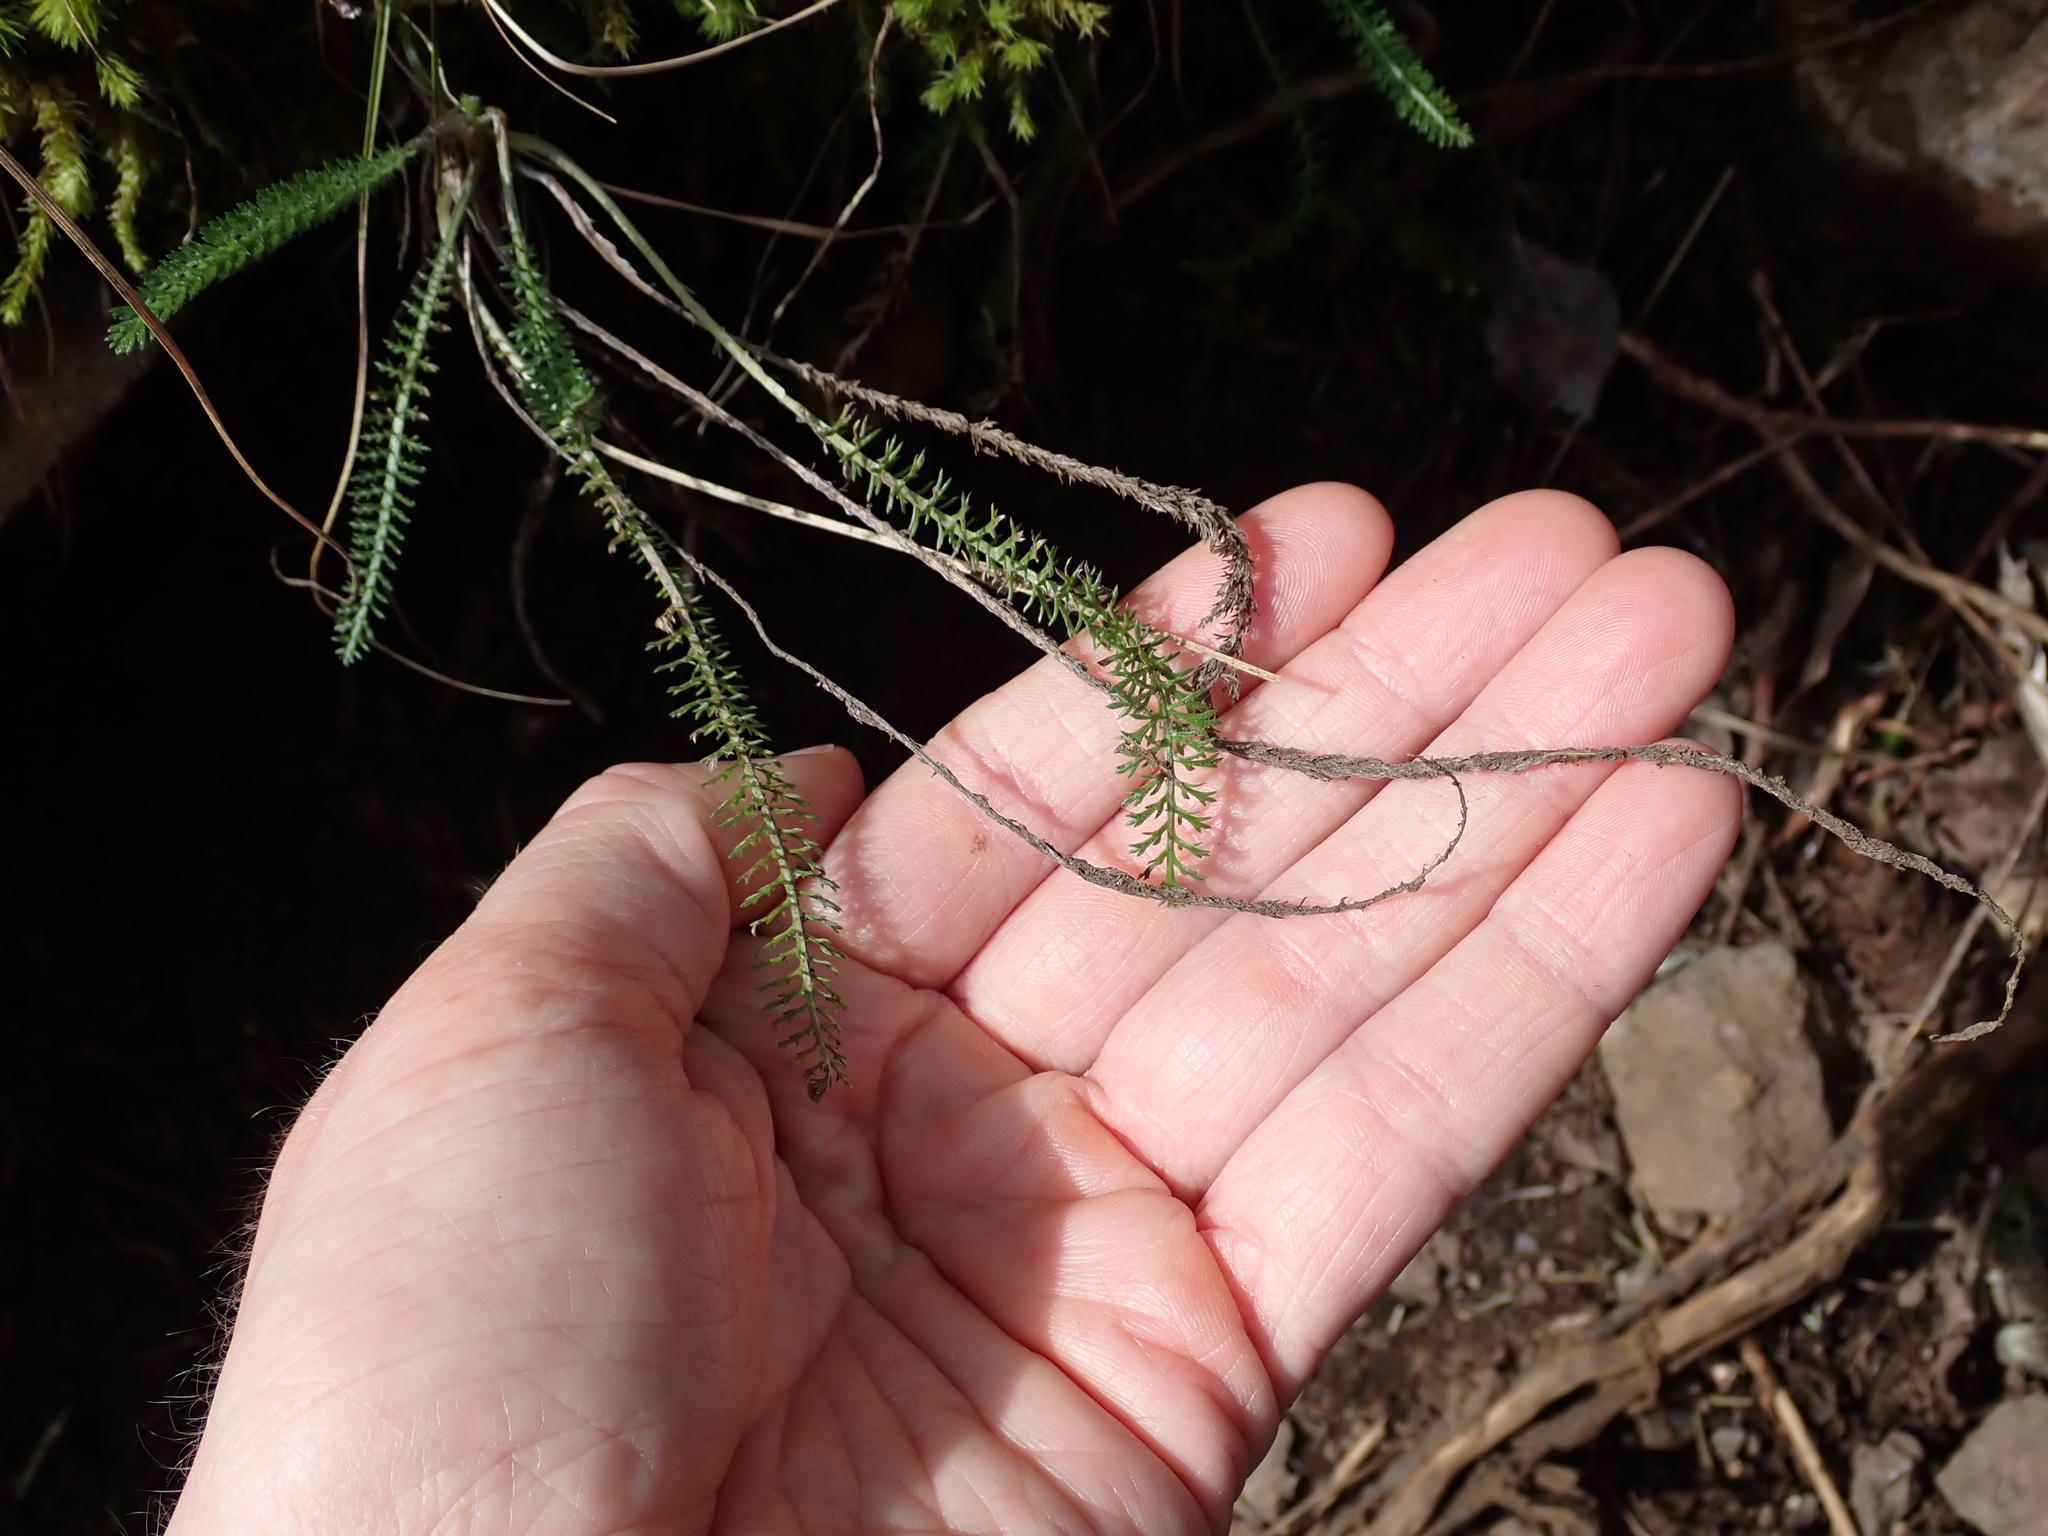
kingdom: Plantae
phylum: Tracheophyta
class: Magnoliopsida
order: Asterales
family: Asteraceae
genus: Achillea
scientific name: Achillea millefolium
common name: Yarrow
